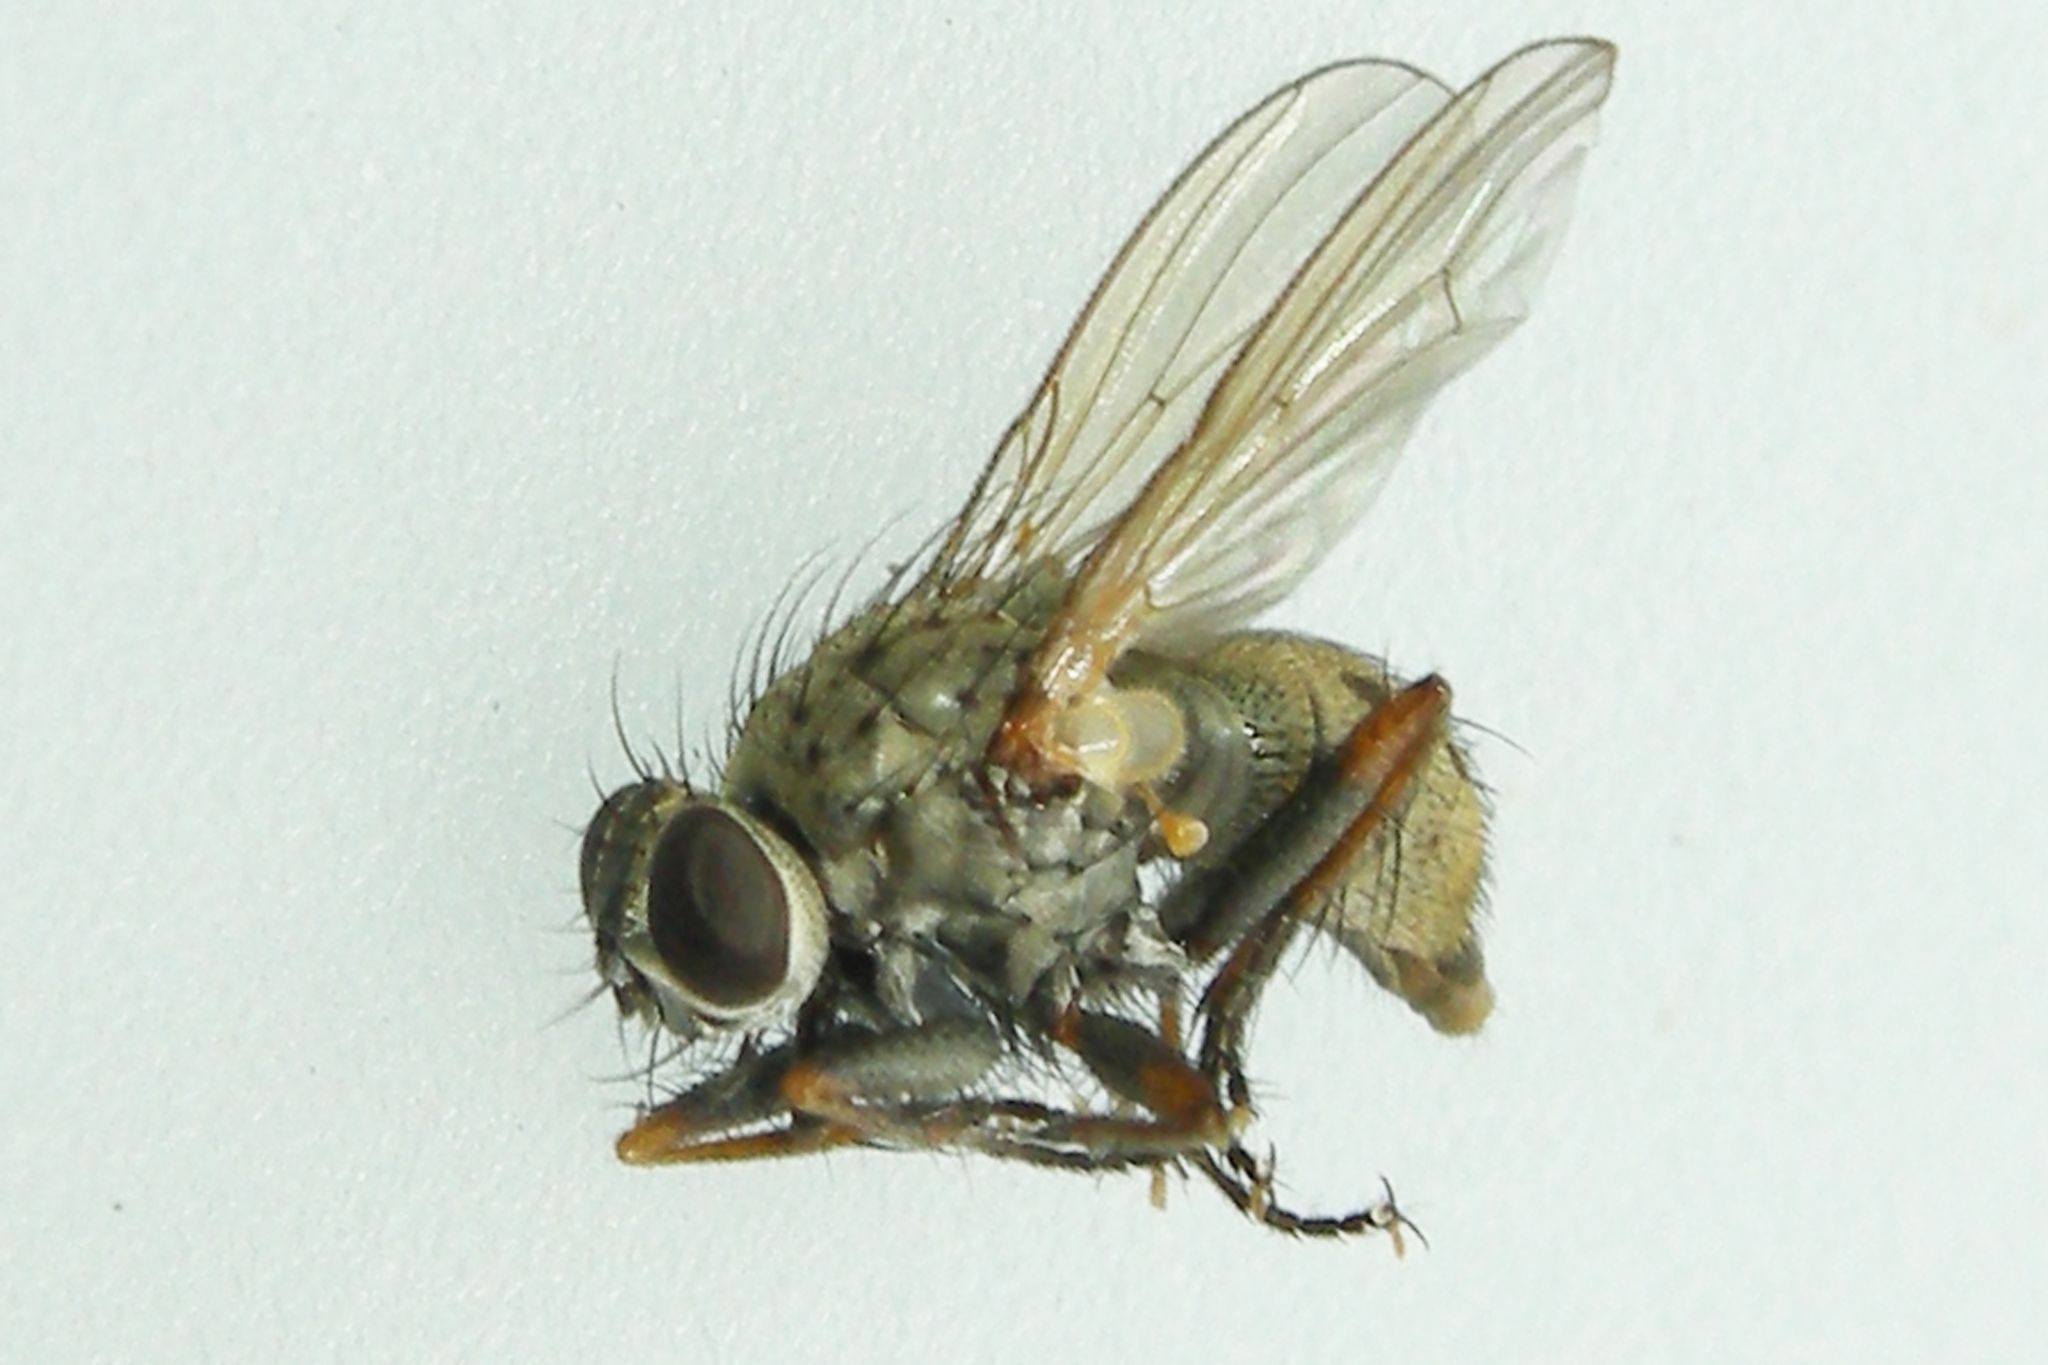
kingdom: Animalia
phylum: Arthropoda
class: Insecta
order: Diptera
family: Muscidae
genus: Coenosia
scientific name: Coenosia tigrina
